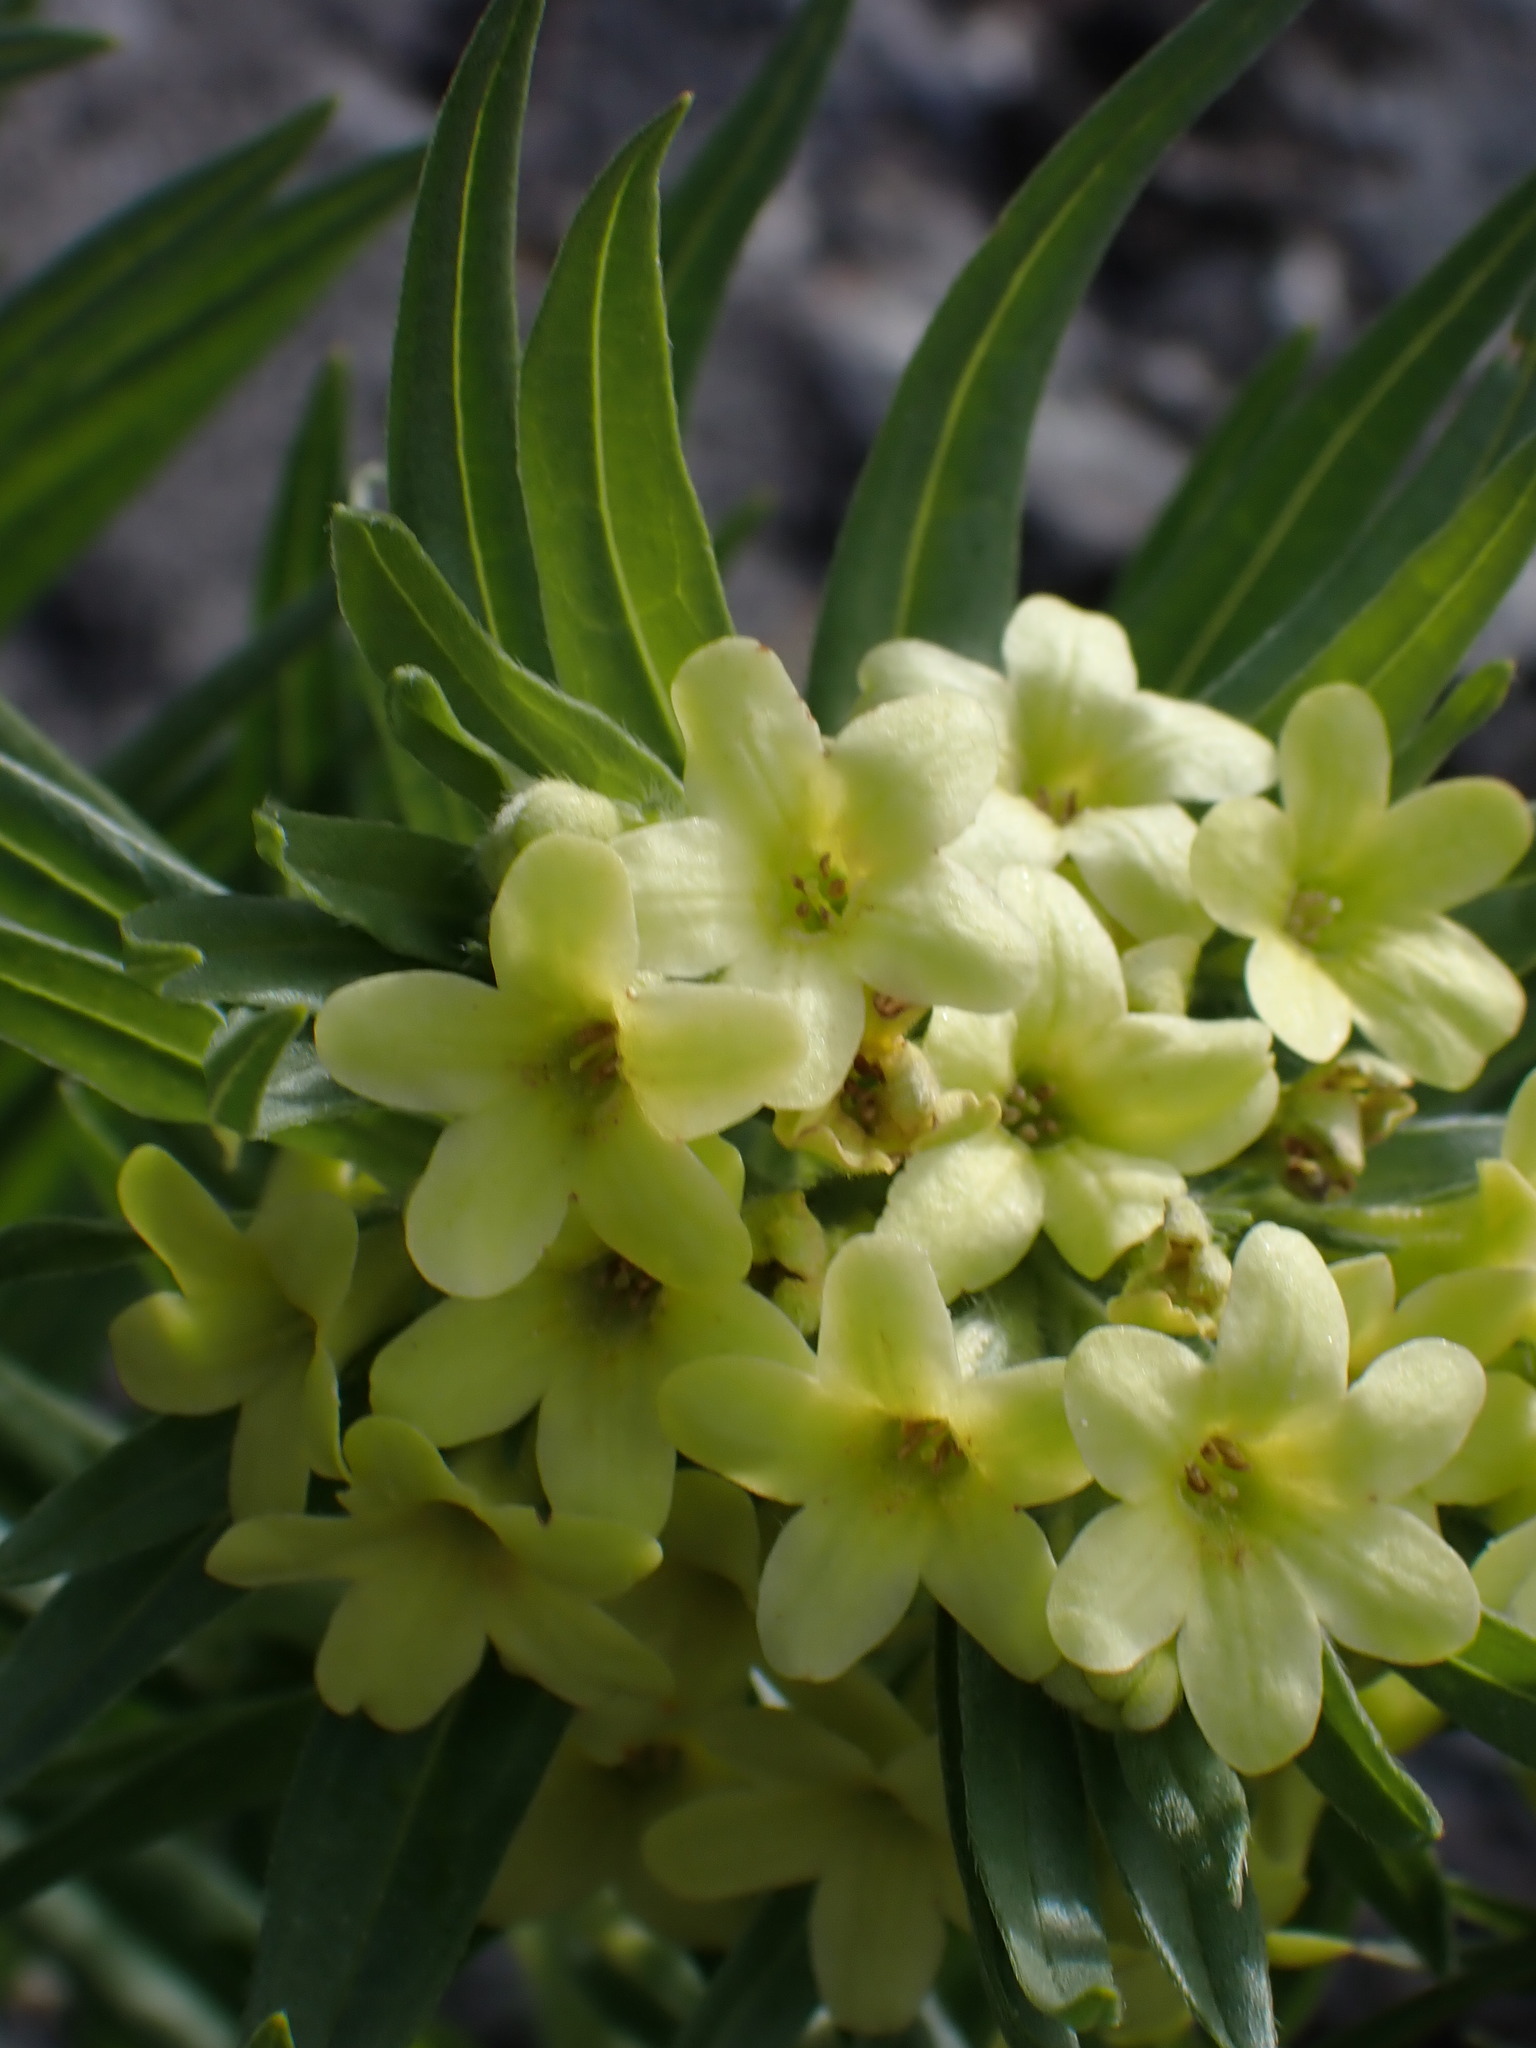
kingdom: Plantae
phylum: Tracheophyta
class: Magnoliopsida
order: Boraginales
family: Boraginaceae
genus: Lithospermum
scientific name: Lithospermum ruderale
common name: Western gromwell
